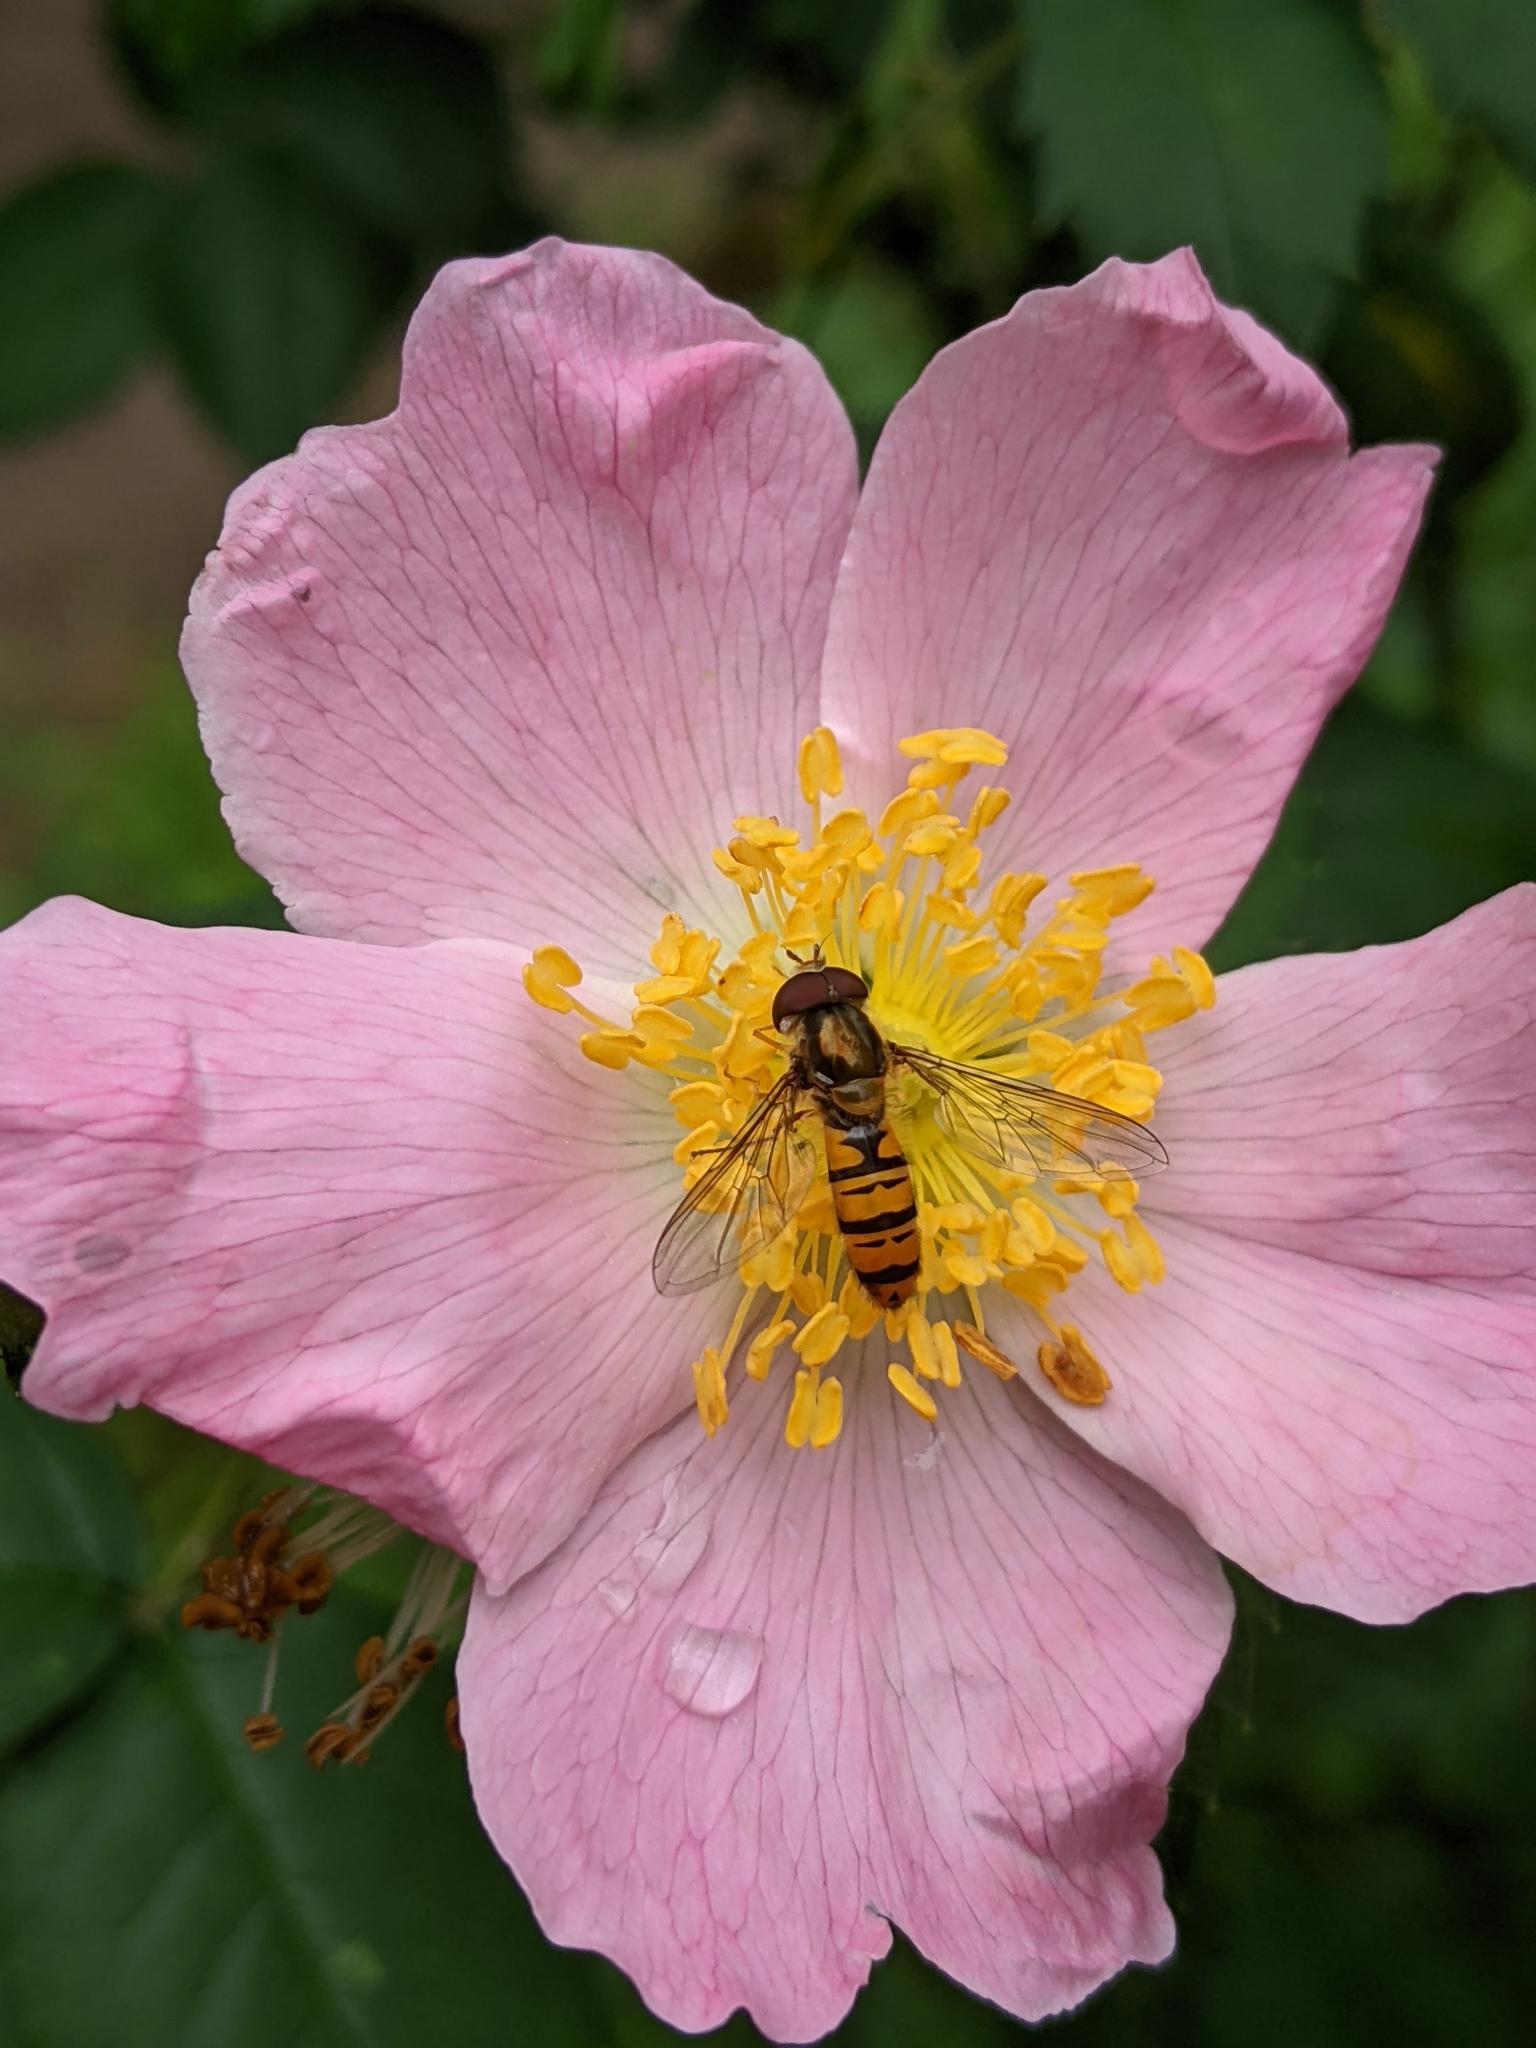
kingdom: Animalia
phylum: Arthropoda
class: Insecta
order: Diptera
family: Syrphidae
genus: Episyrphus
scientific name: Episyrphus balteatus
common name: Marmalade hoverfly
